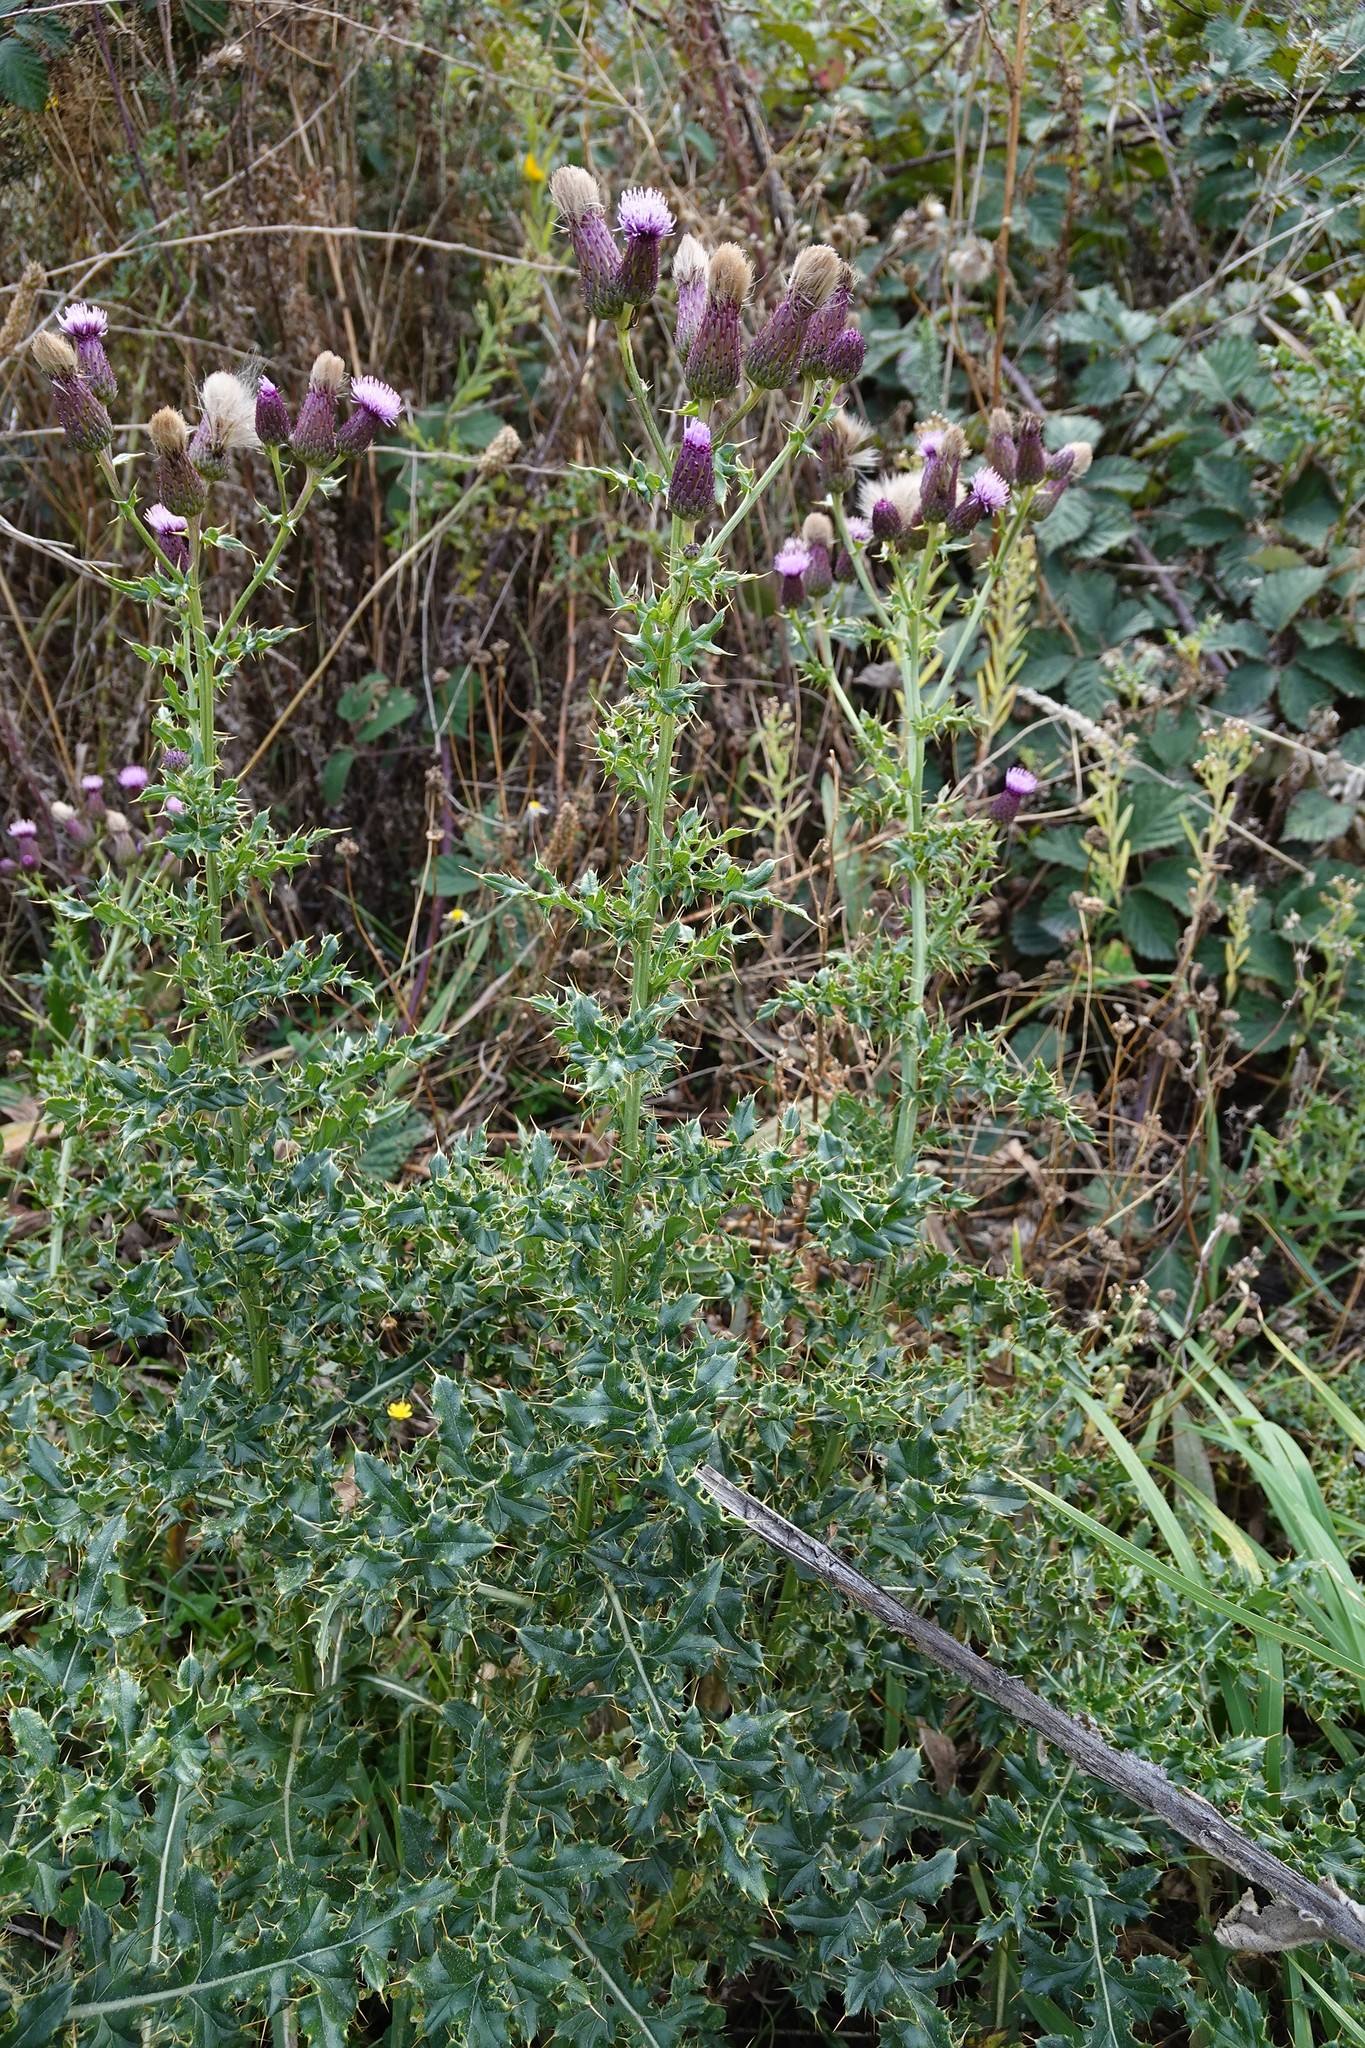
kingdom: Plantae
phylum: Tracheophyta
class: Magnoliopsida
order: Asterales
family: Asteraceae
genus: Cirsium
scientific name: Cirsium arvense
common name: Creeping thistle
